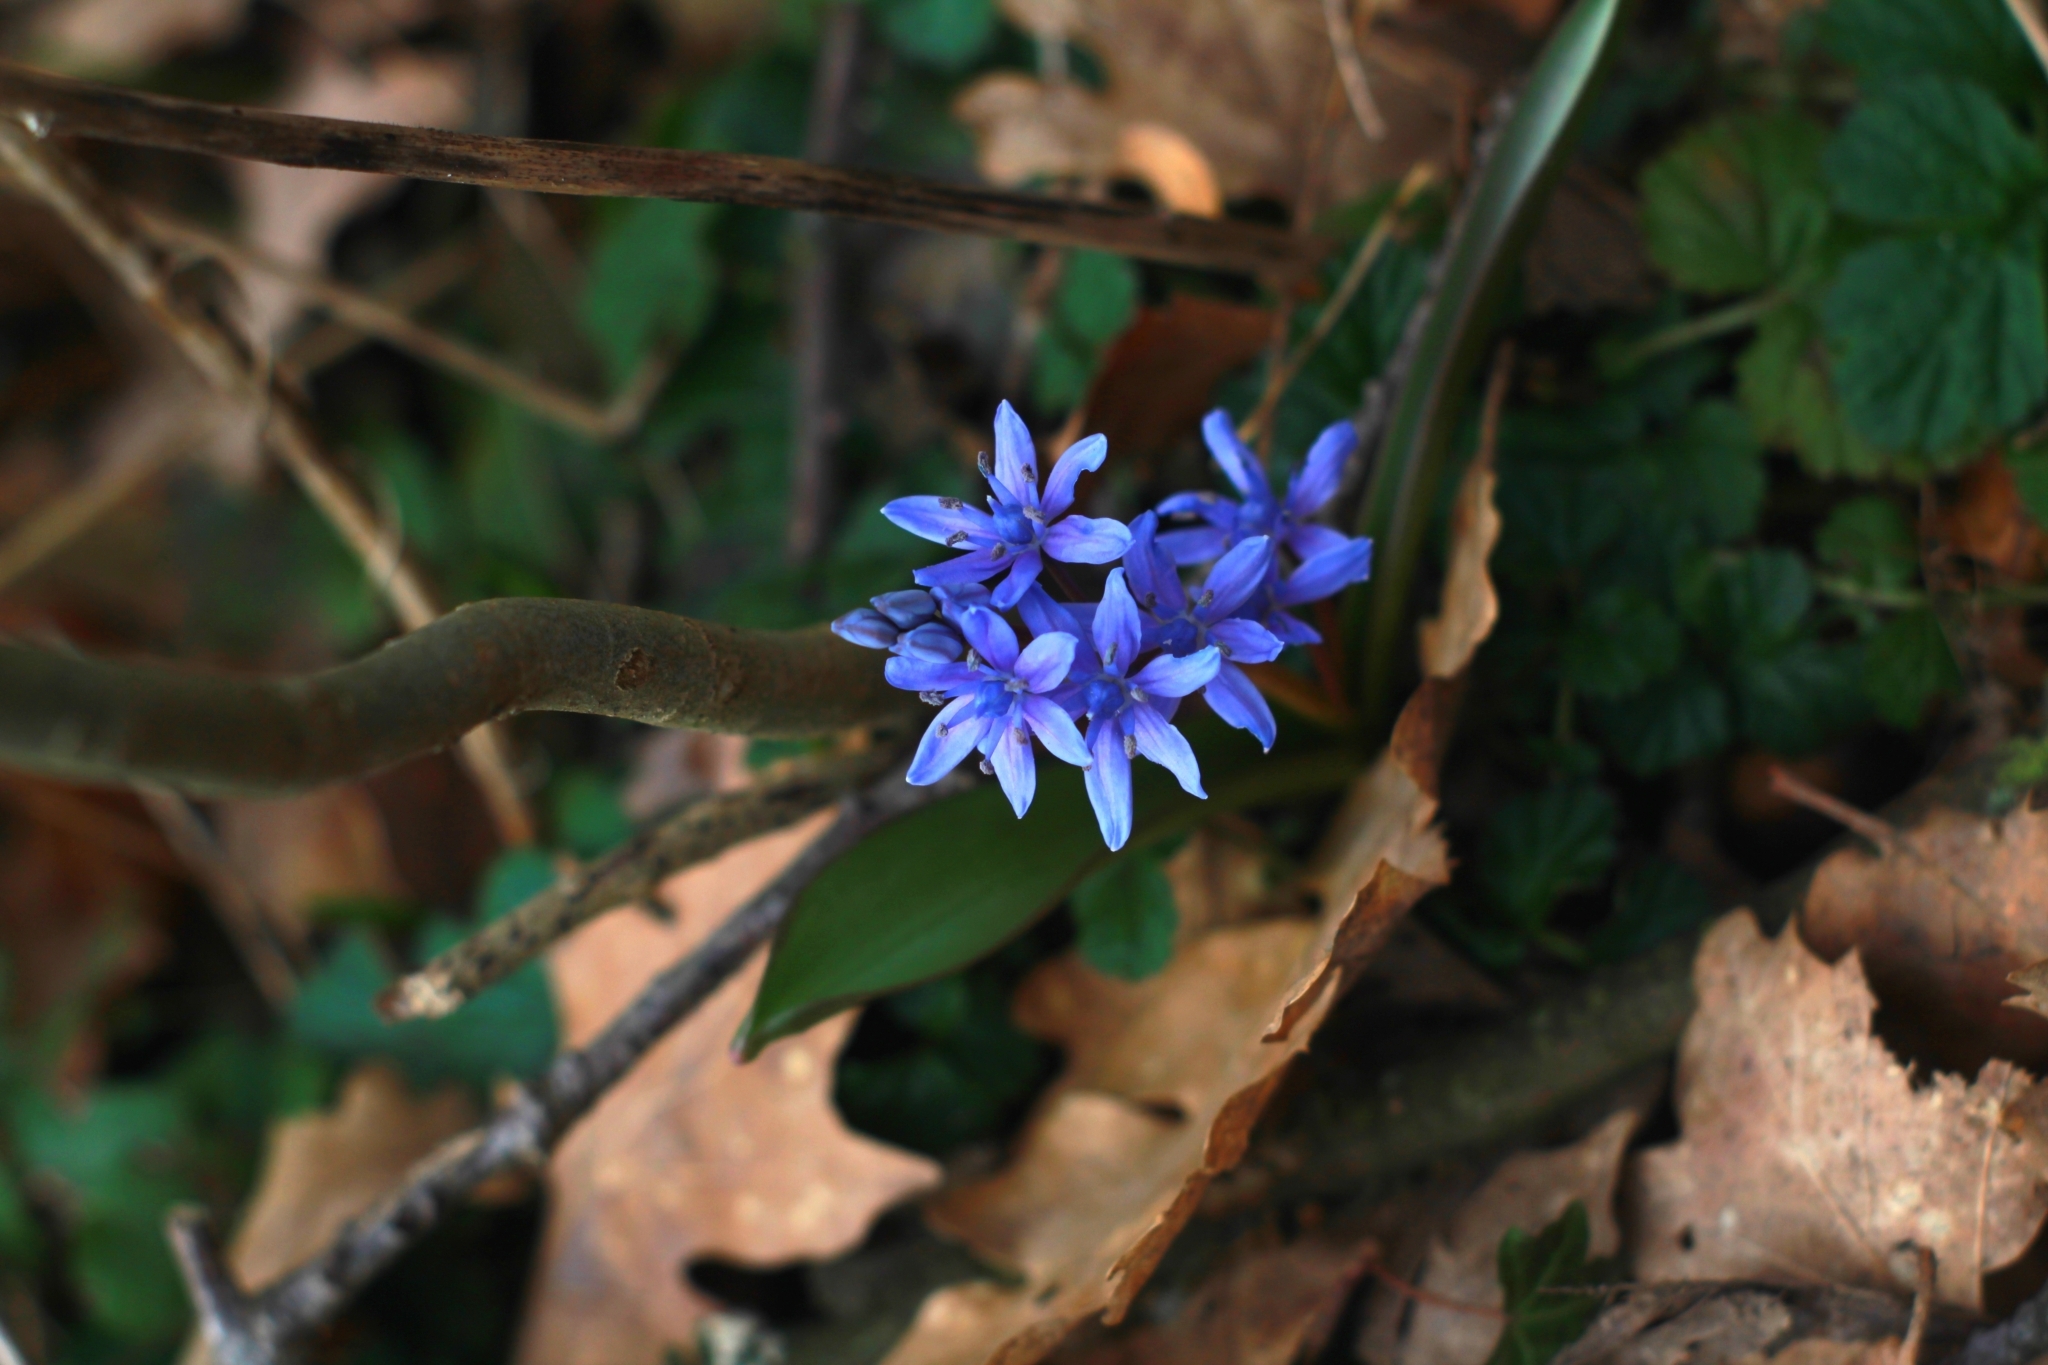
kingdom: Plantae
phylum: Tracheophyta
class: Liliopsida
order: Asparagales
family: Asparagaceae
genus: Scilla
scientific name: Scilla bifolia
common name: Alpine squill
